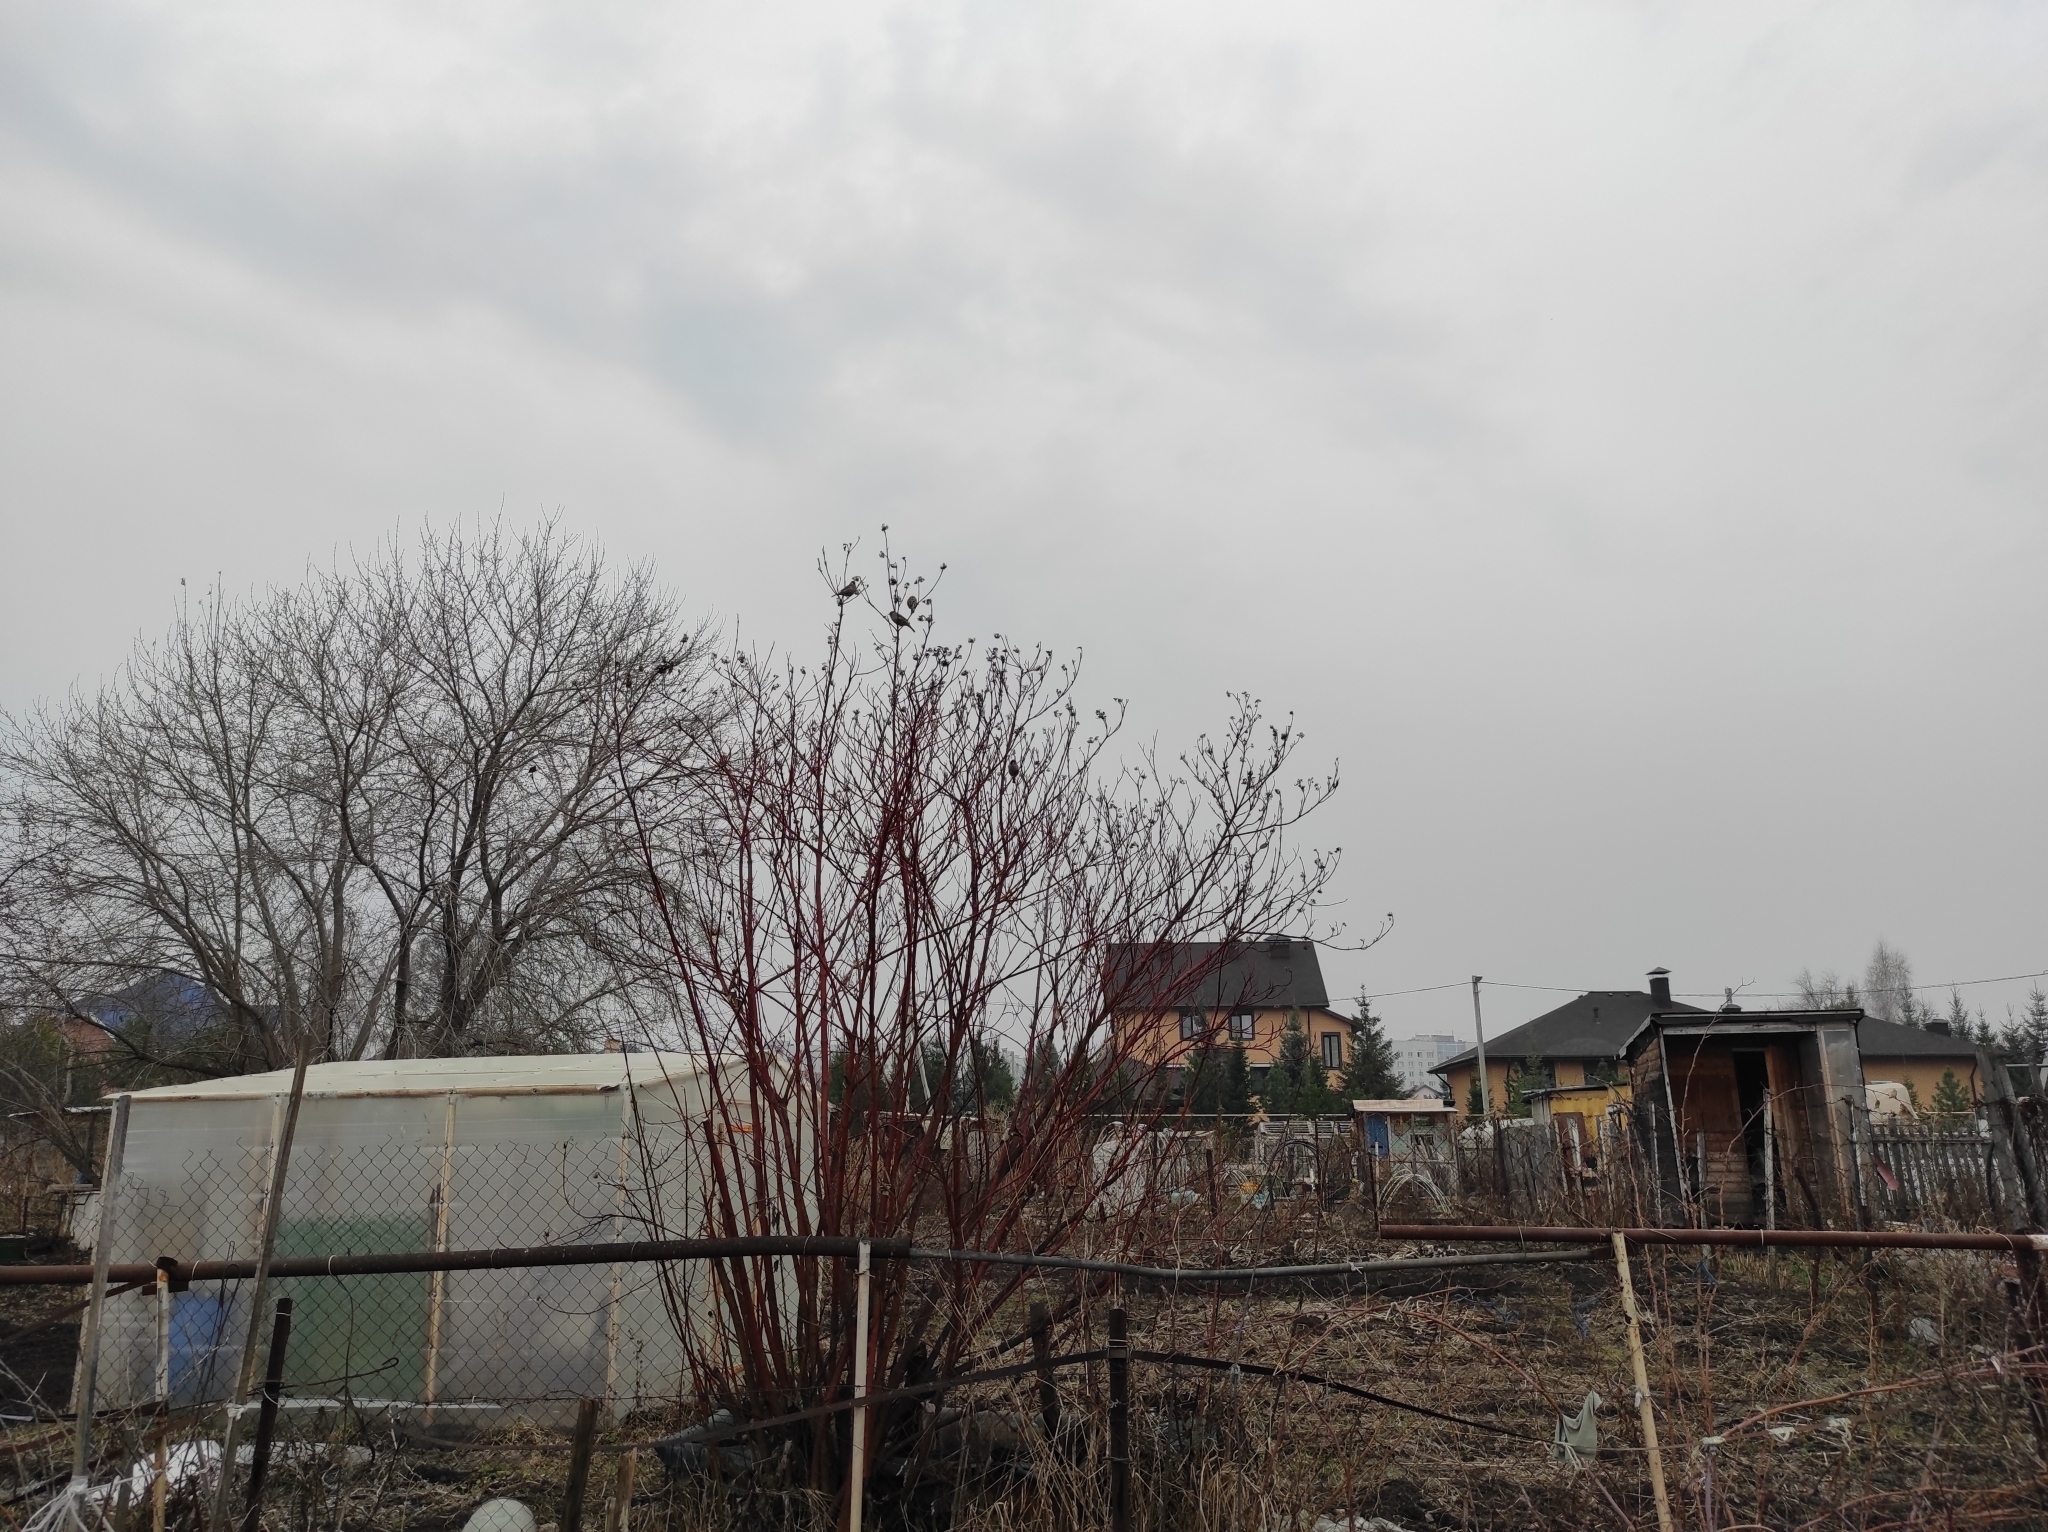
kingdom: Plantae
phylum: Tracheophyta
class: Liliopsida
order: Poales
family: Poaceae
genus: Chloris
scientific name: Chloris chloris
